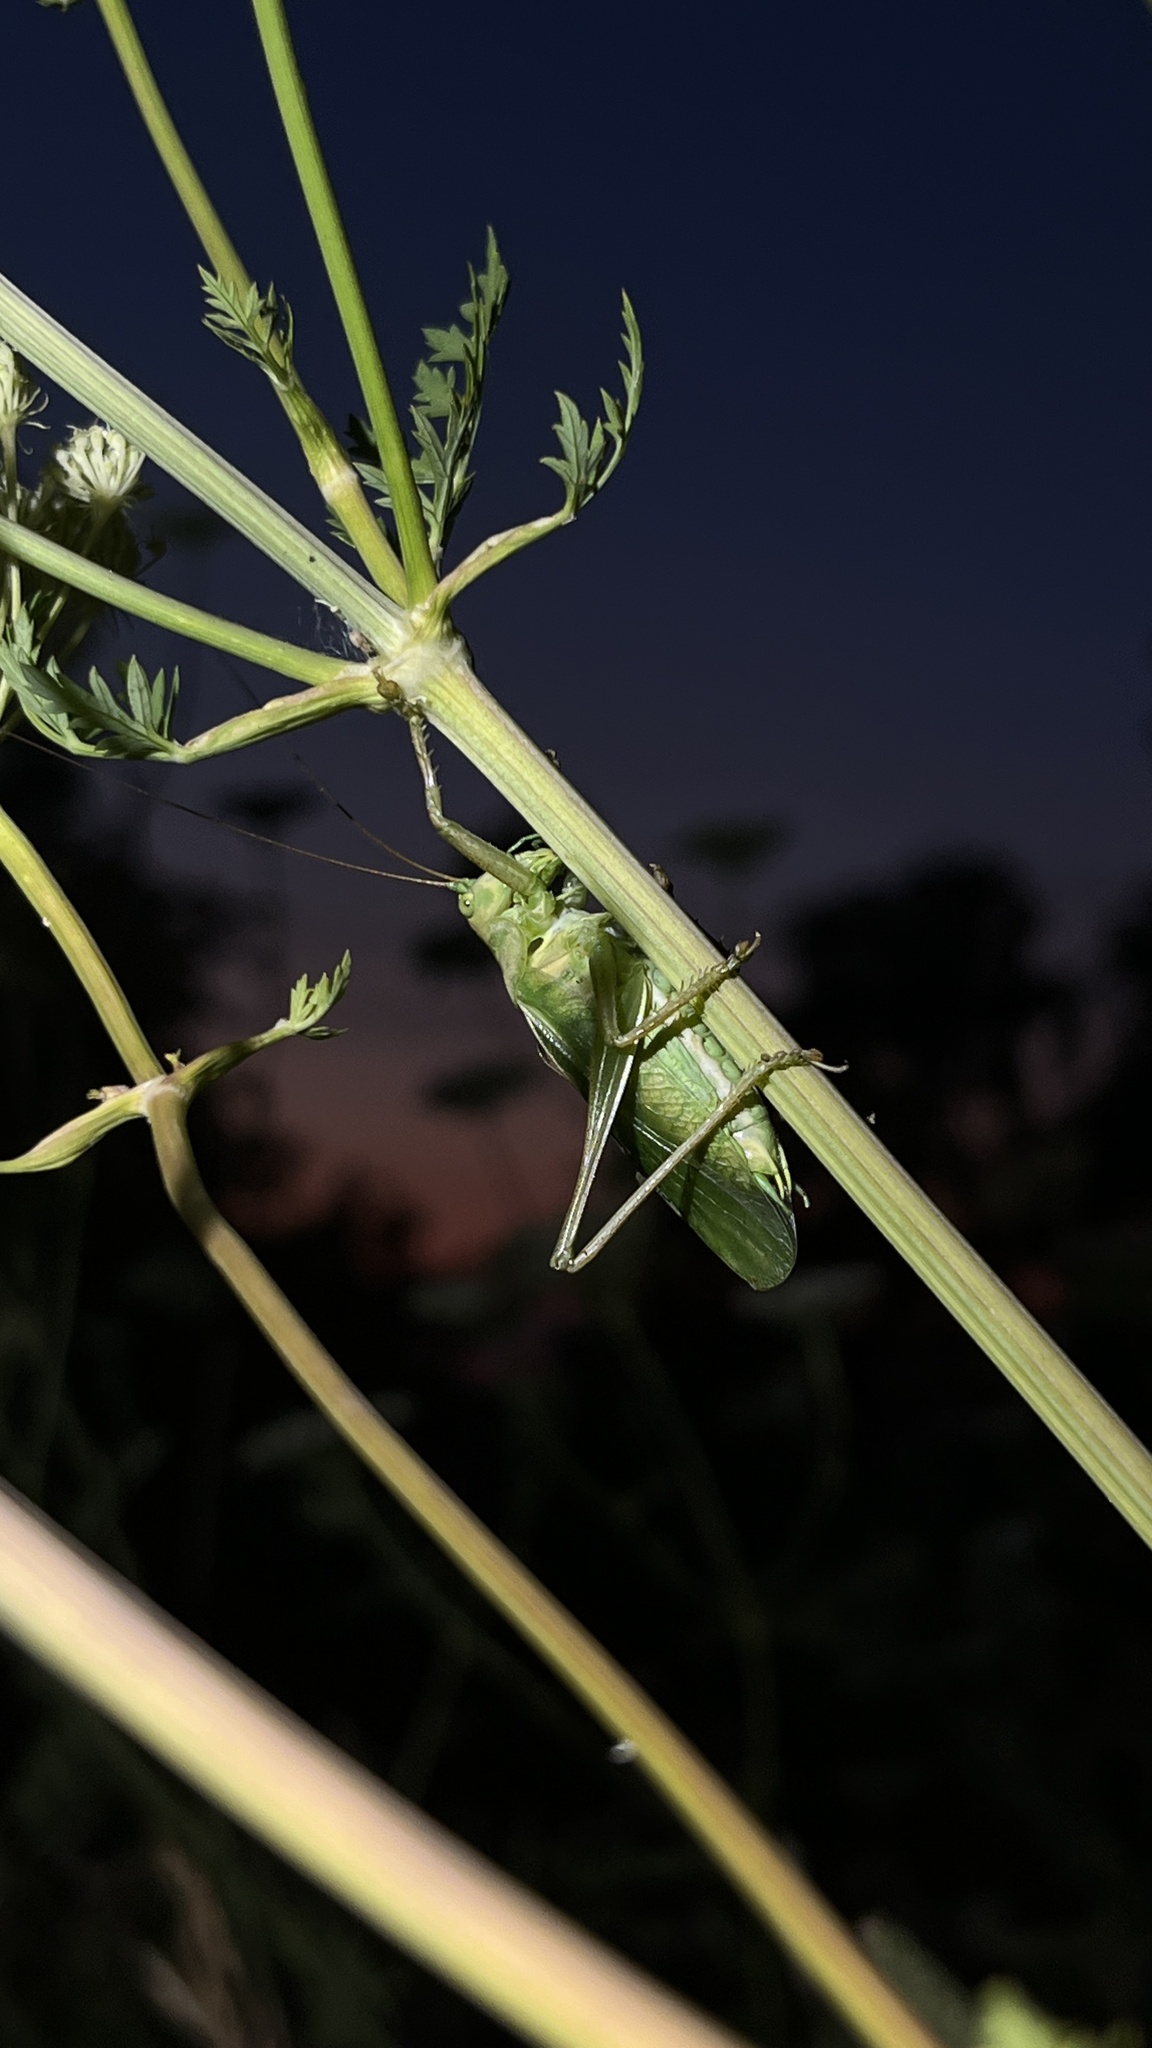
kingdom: Animalia
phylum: Arthropoda
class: Insecta
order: Orthoptera
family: Tettigoniidae
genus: Tettigonia
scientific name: Tettigonia cantans
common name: Upland green bush-cricket
